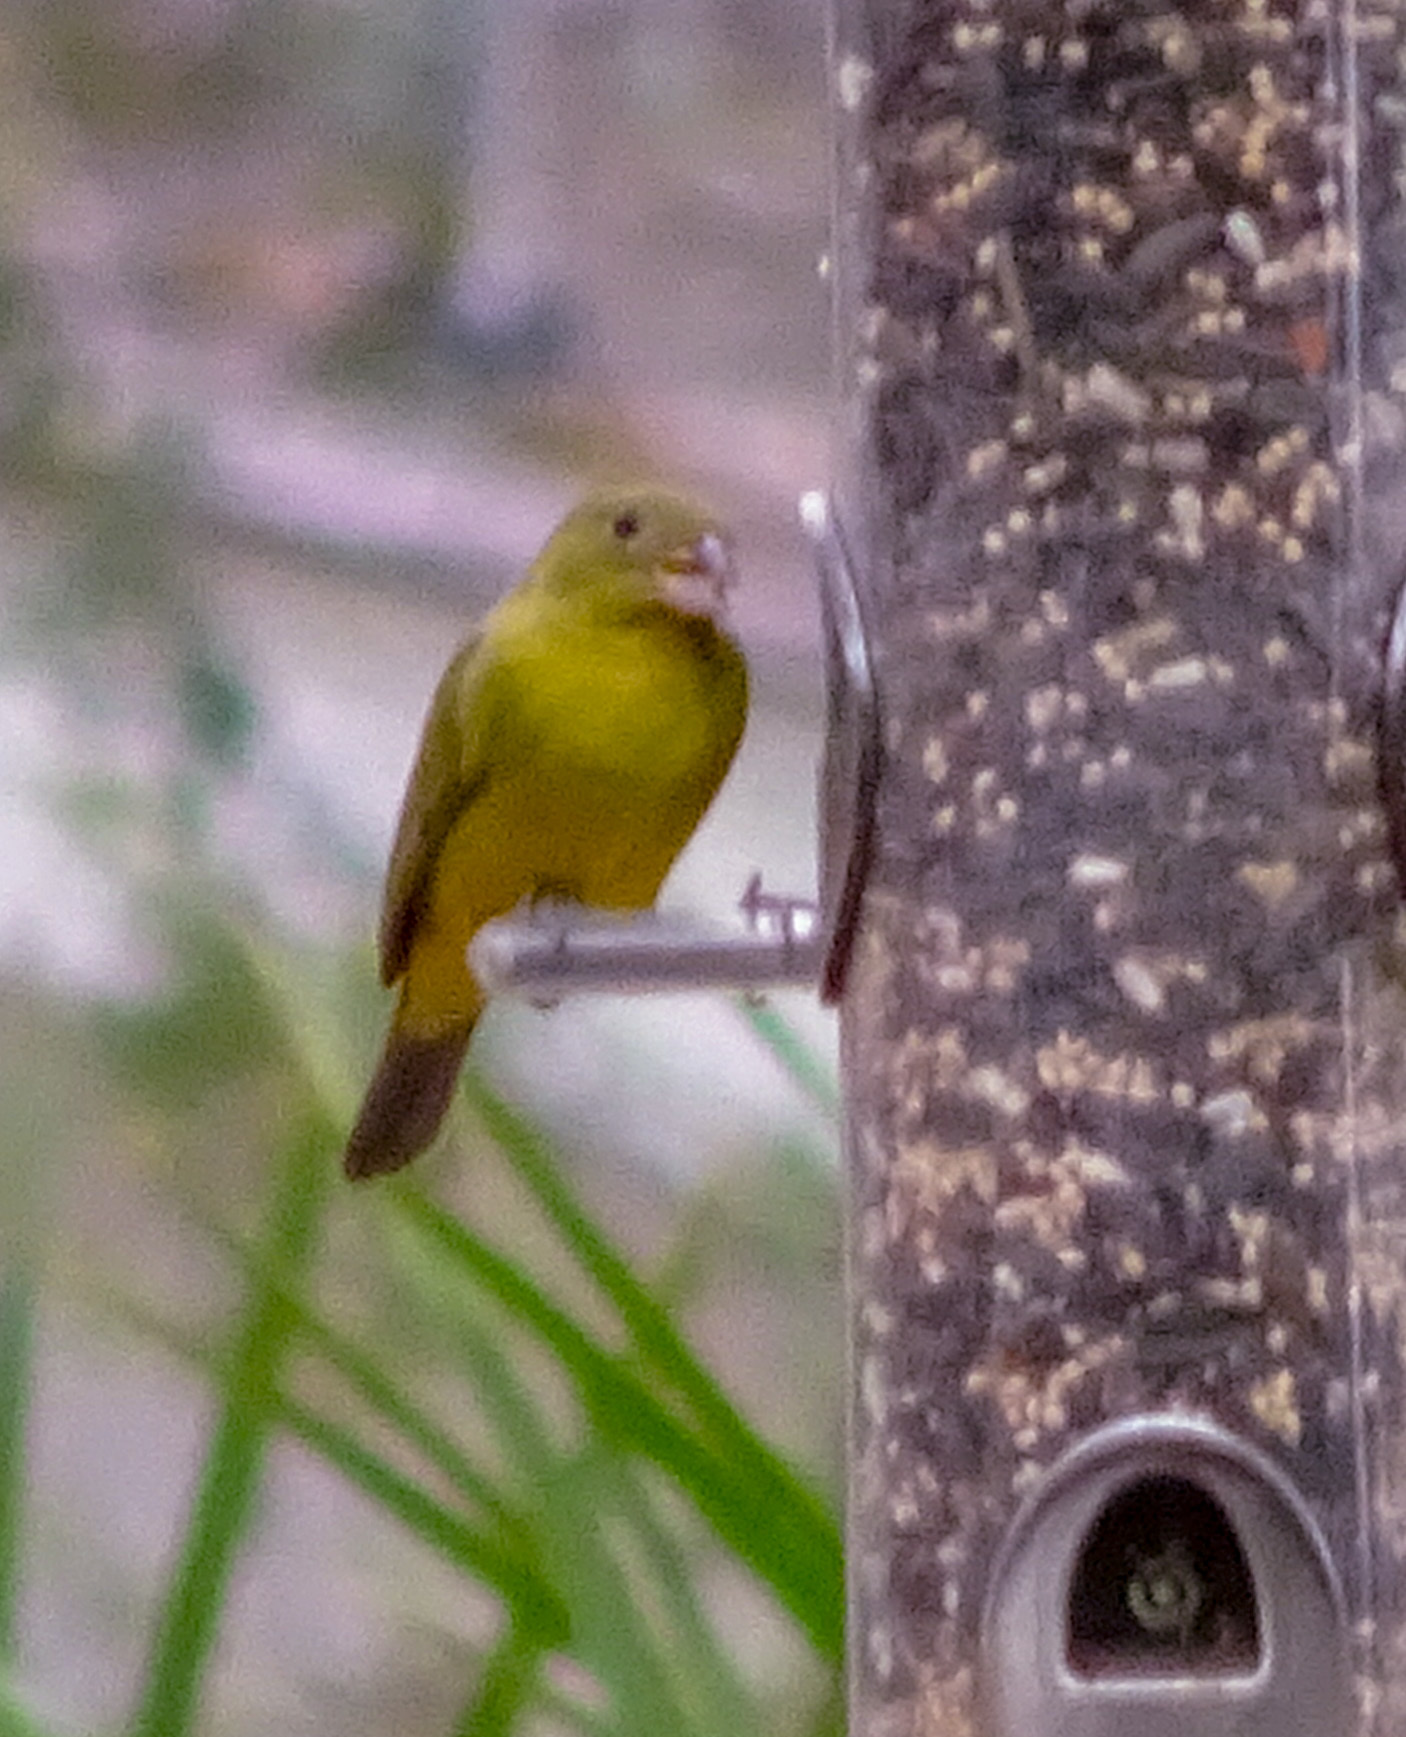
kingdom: Animalia
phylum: Chordata
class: Aves
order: Passeriformes
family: Cardinalidae
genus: Passerina
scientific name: Passerina ciris
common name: Painted bunting
